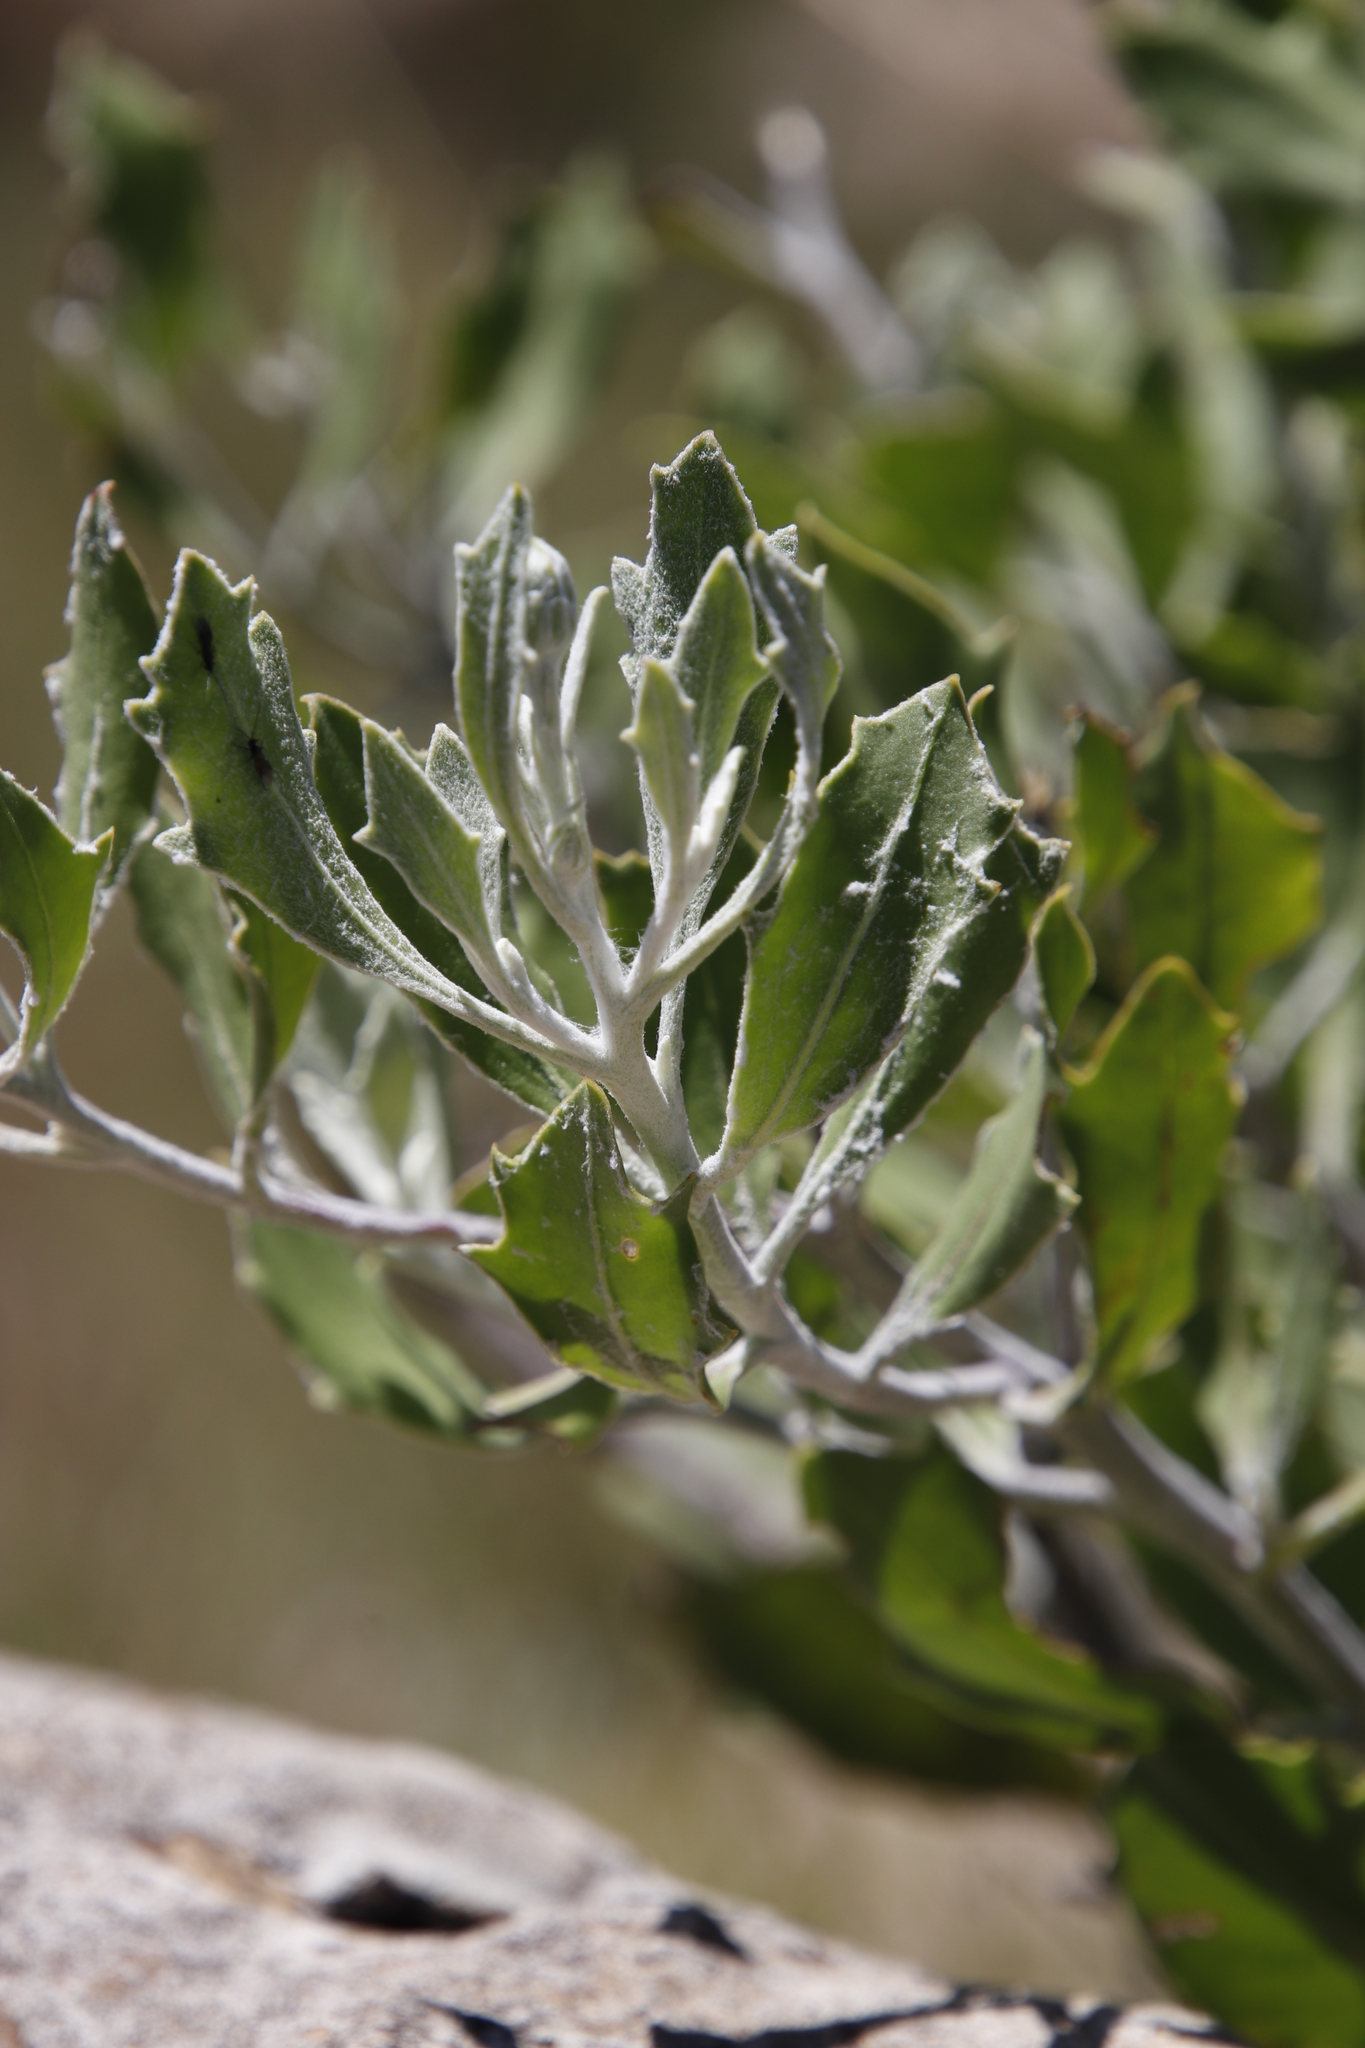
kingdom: Plantae
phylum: Tracheophyta
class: Magnoliopsida
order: Asterales
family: Asteraceae
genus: Osteospermum
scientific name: Osteospermum moniliferum
